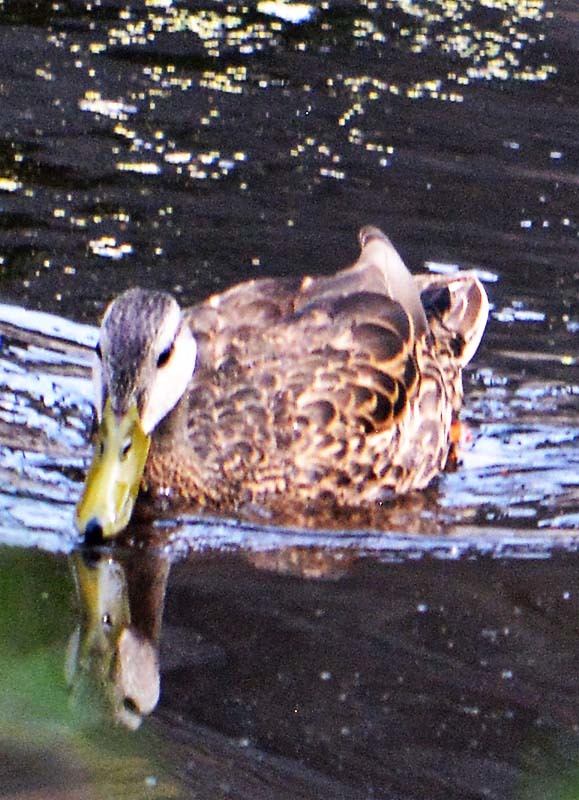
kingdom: Animalia
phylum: Chordata
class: Aves
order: Anseriformes
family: Anatidae
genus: Anas
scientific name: Anas diazi
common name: Mexican duck
